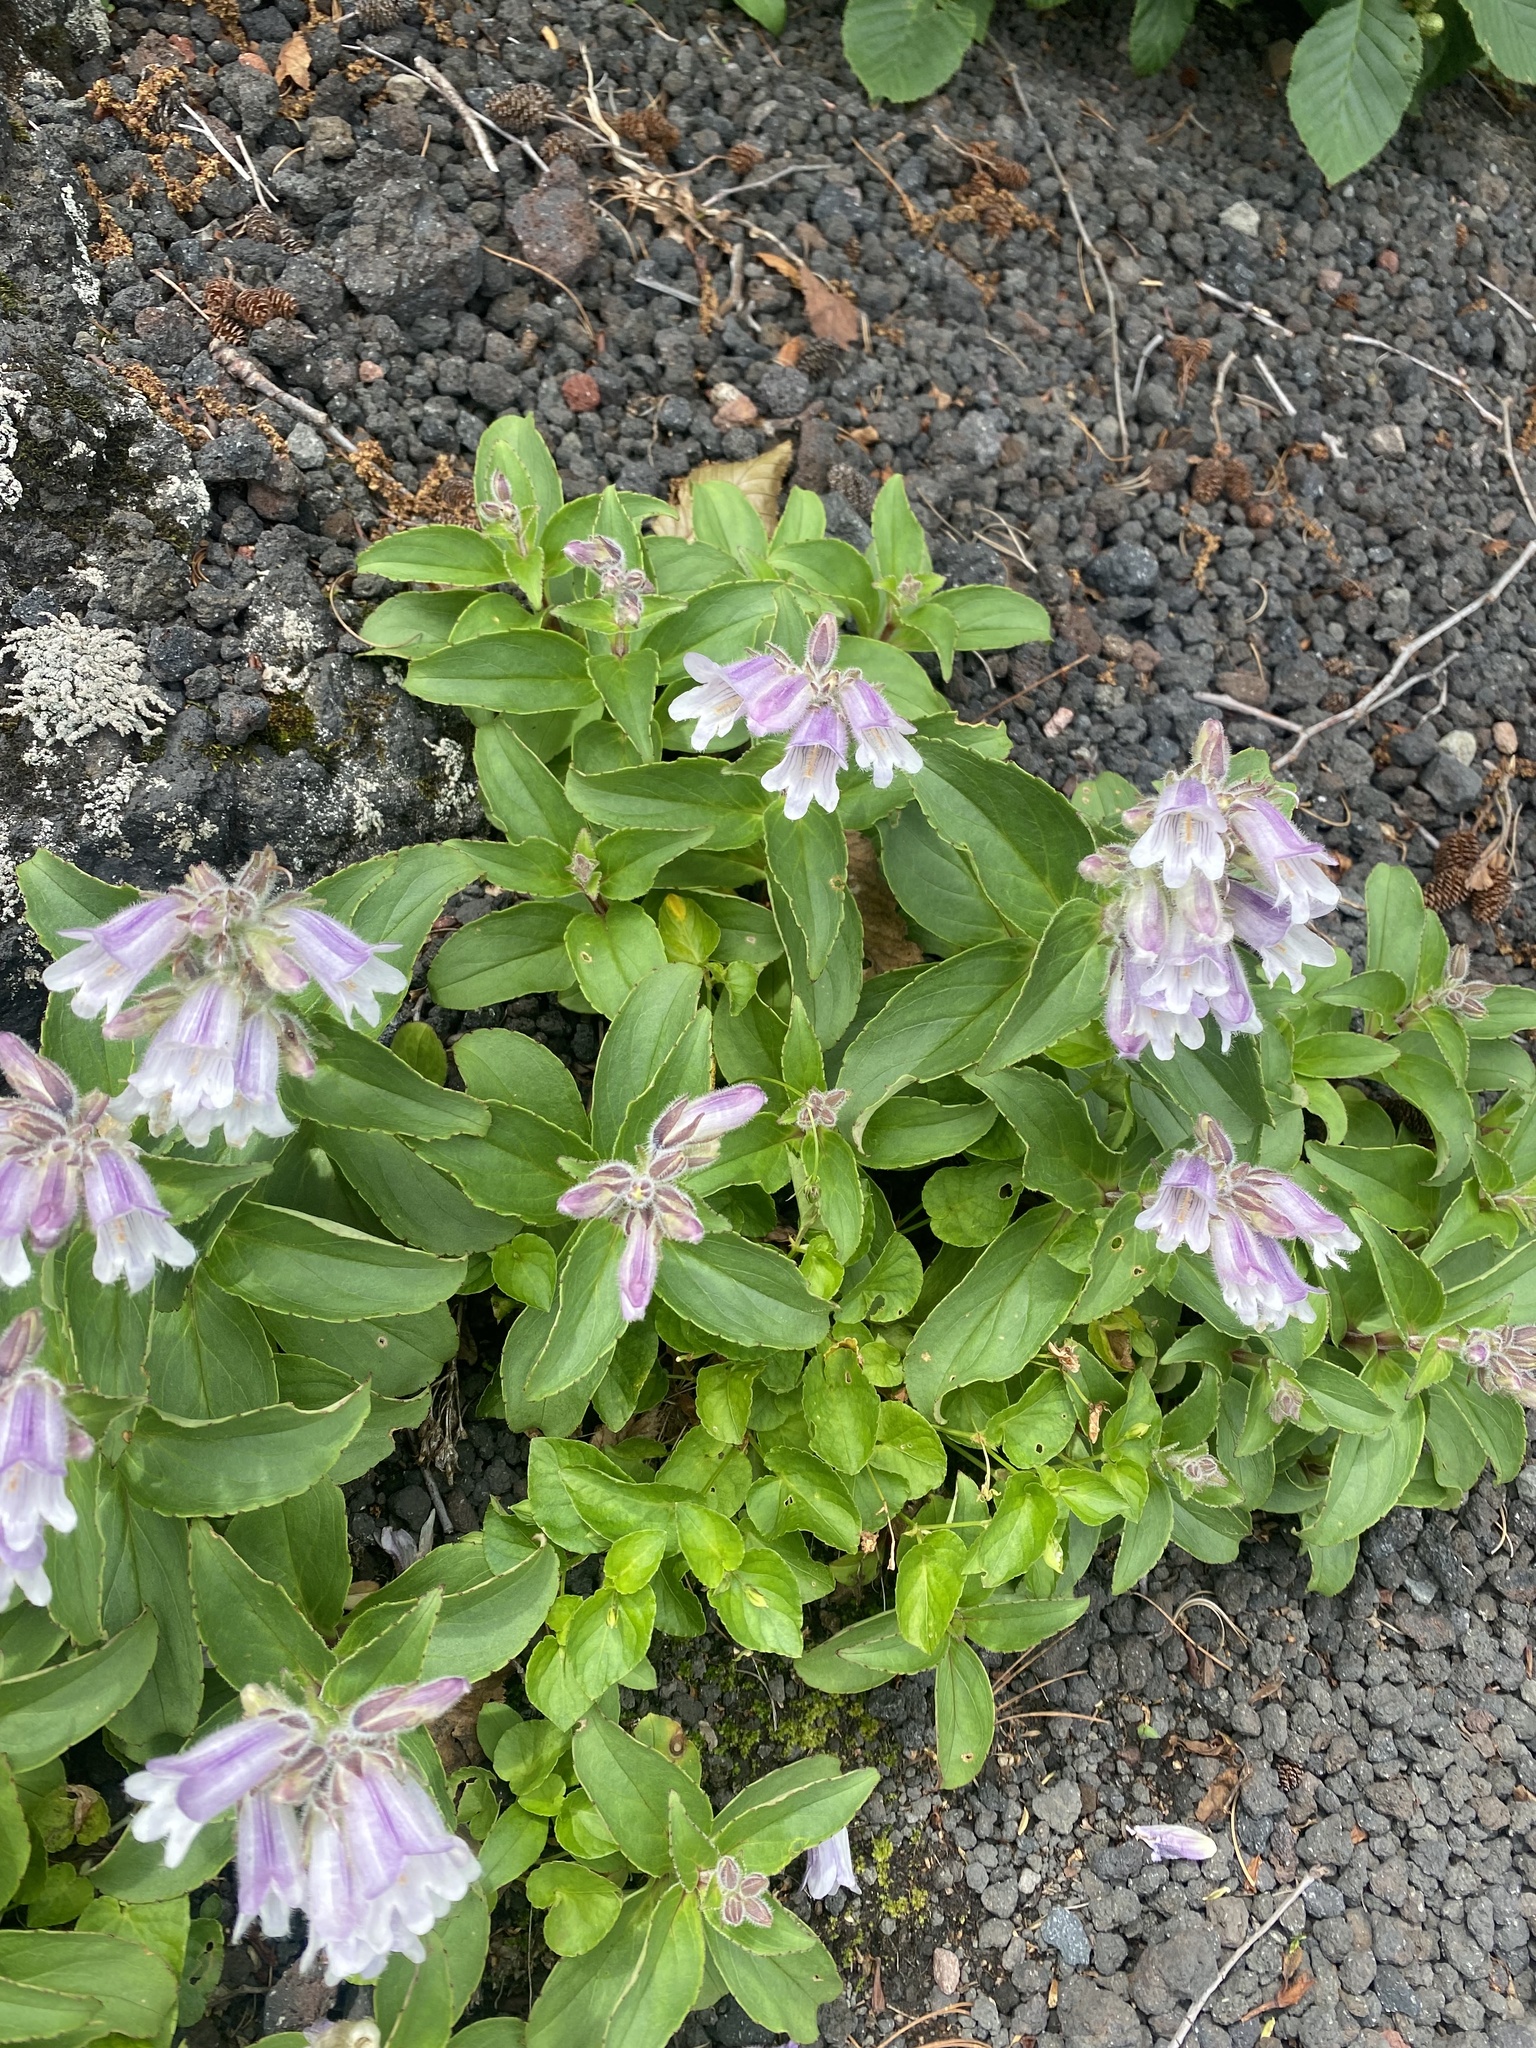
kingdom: Plantae
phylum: Tracheophyta
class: Magnoliopsida
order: Lamiales
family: Plantaginaceae
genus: Pennellianthus
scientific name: Pennellianthus frutescens
